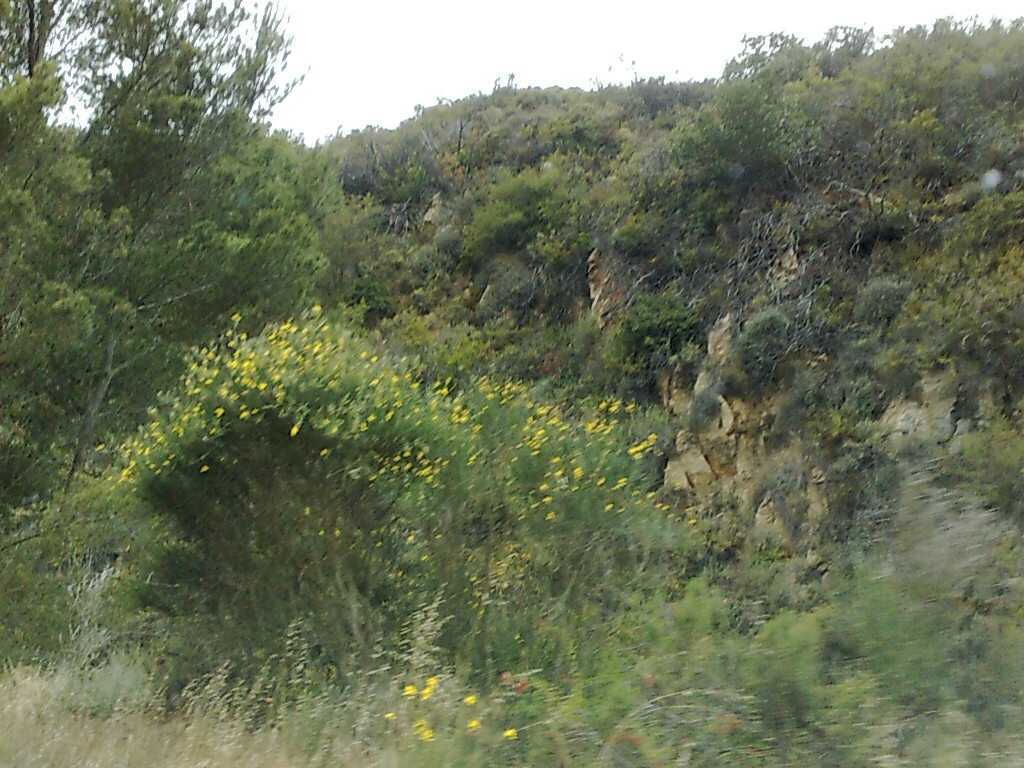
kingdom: Plantae
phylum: Tracheophyta
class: Magnoliopsida
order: Fabales
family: Fabaceae
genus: Spartium
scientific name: Spartium junceum
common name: Spanish broom
